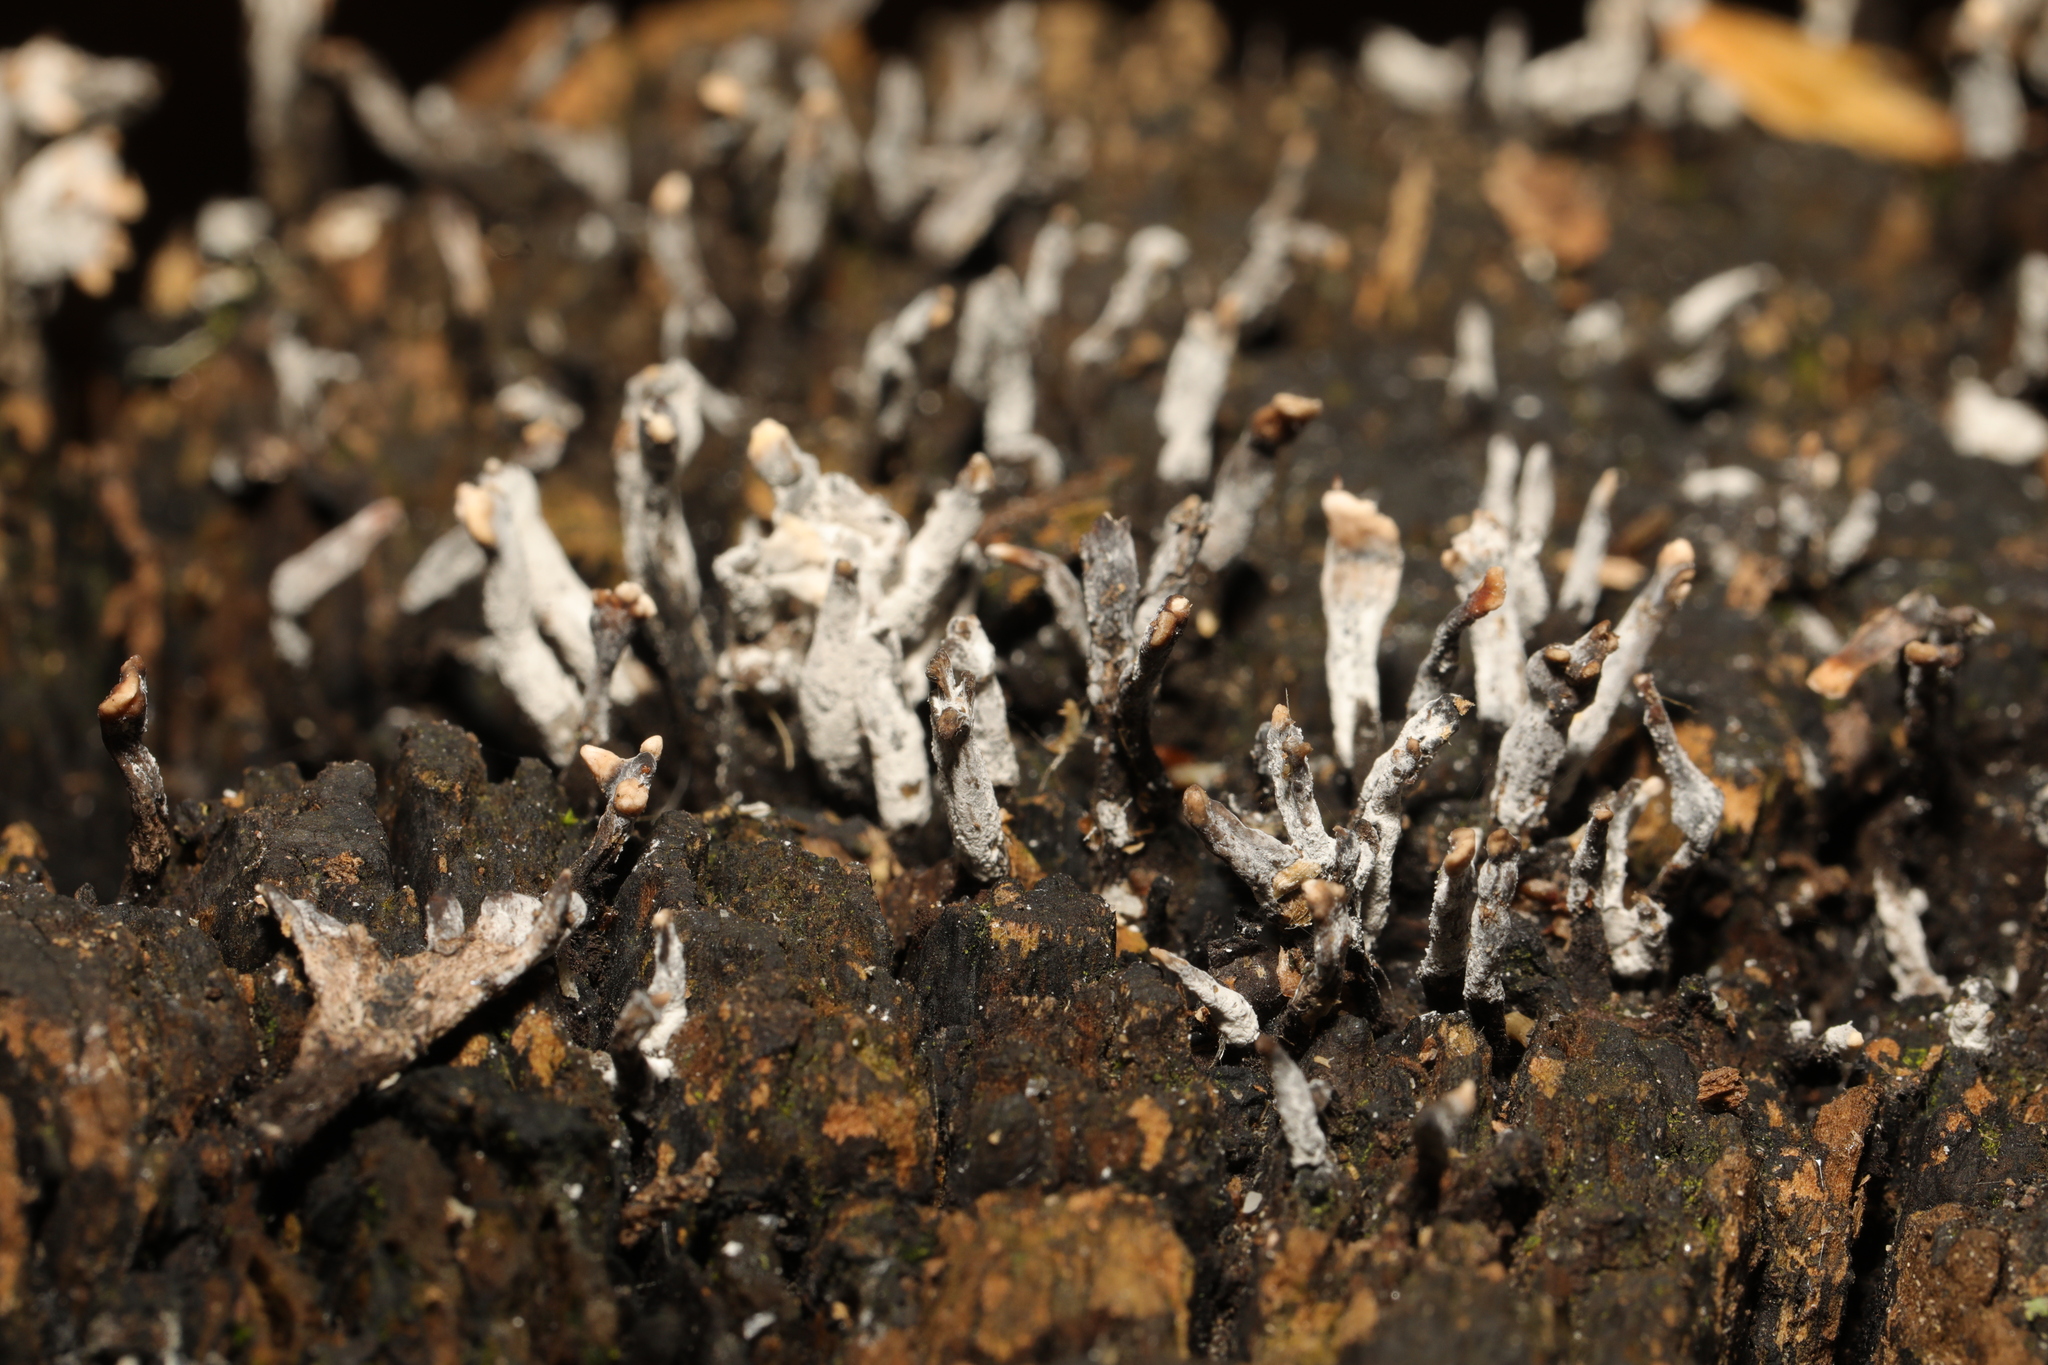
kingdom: Fungi
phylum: Ascomycota
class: Sordariomycetes
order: Xylariales
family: Xylariaceae
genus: Xylaria
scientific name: Xylaria hypoxylon
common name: Candle-snuff fungus
